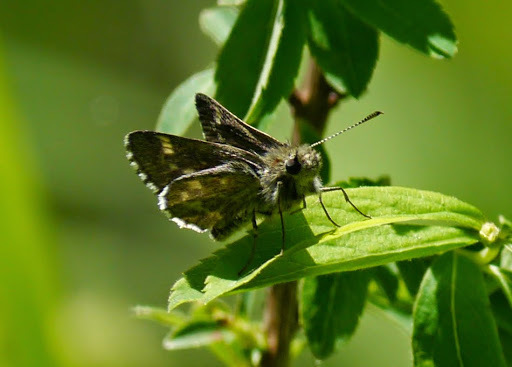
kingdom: Animalia
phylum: Arthropoda
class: Insecta
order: Lepidoptera
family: Hesperiidae
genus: Mastor
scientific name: Mastor hegon
